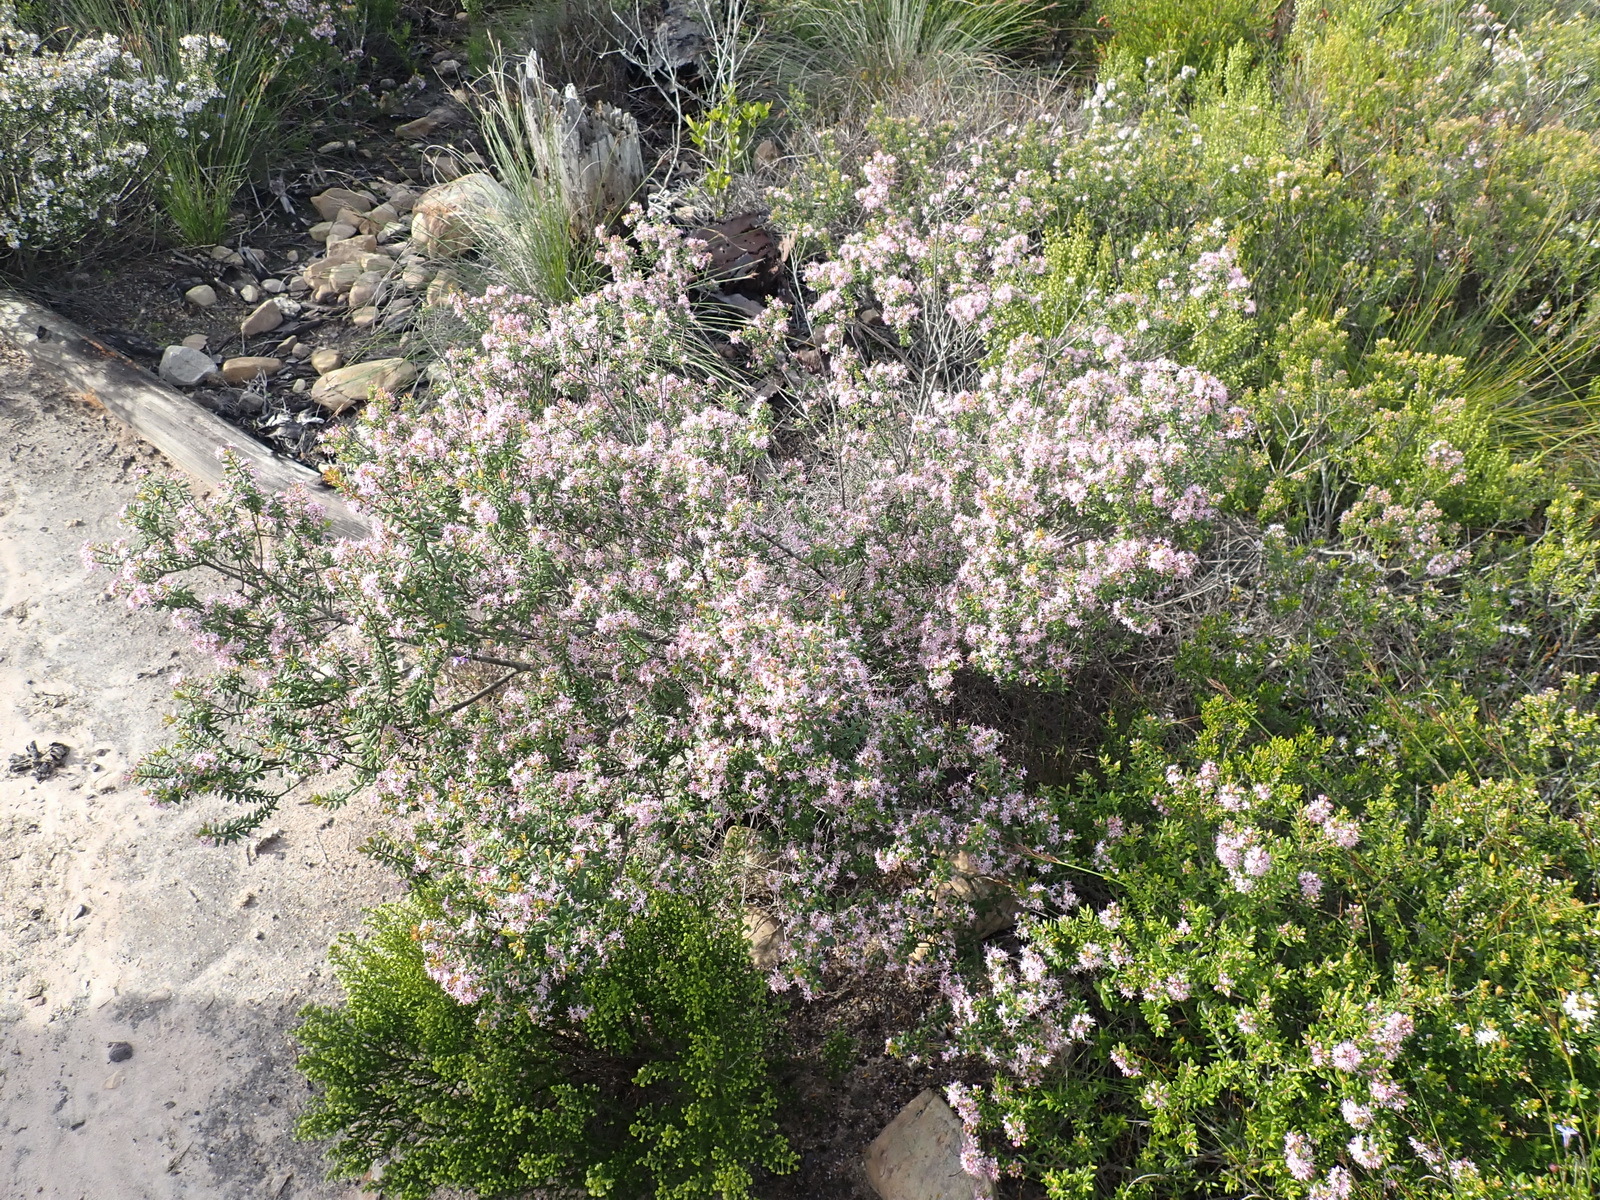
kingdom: Plantae
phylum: Tracheophyta
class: Magnoliopsida
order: Sapindales
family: Rutaceae
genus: Agathosma
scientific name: Agathosma ovata
